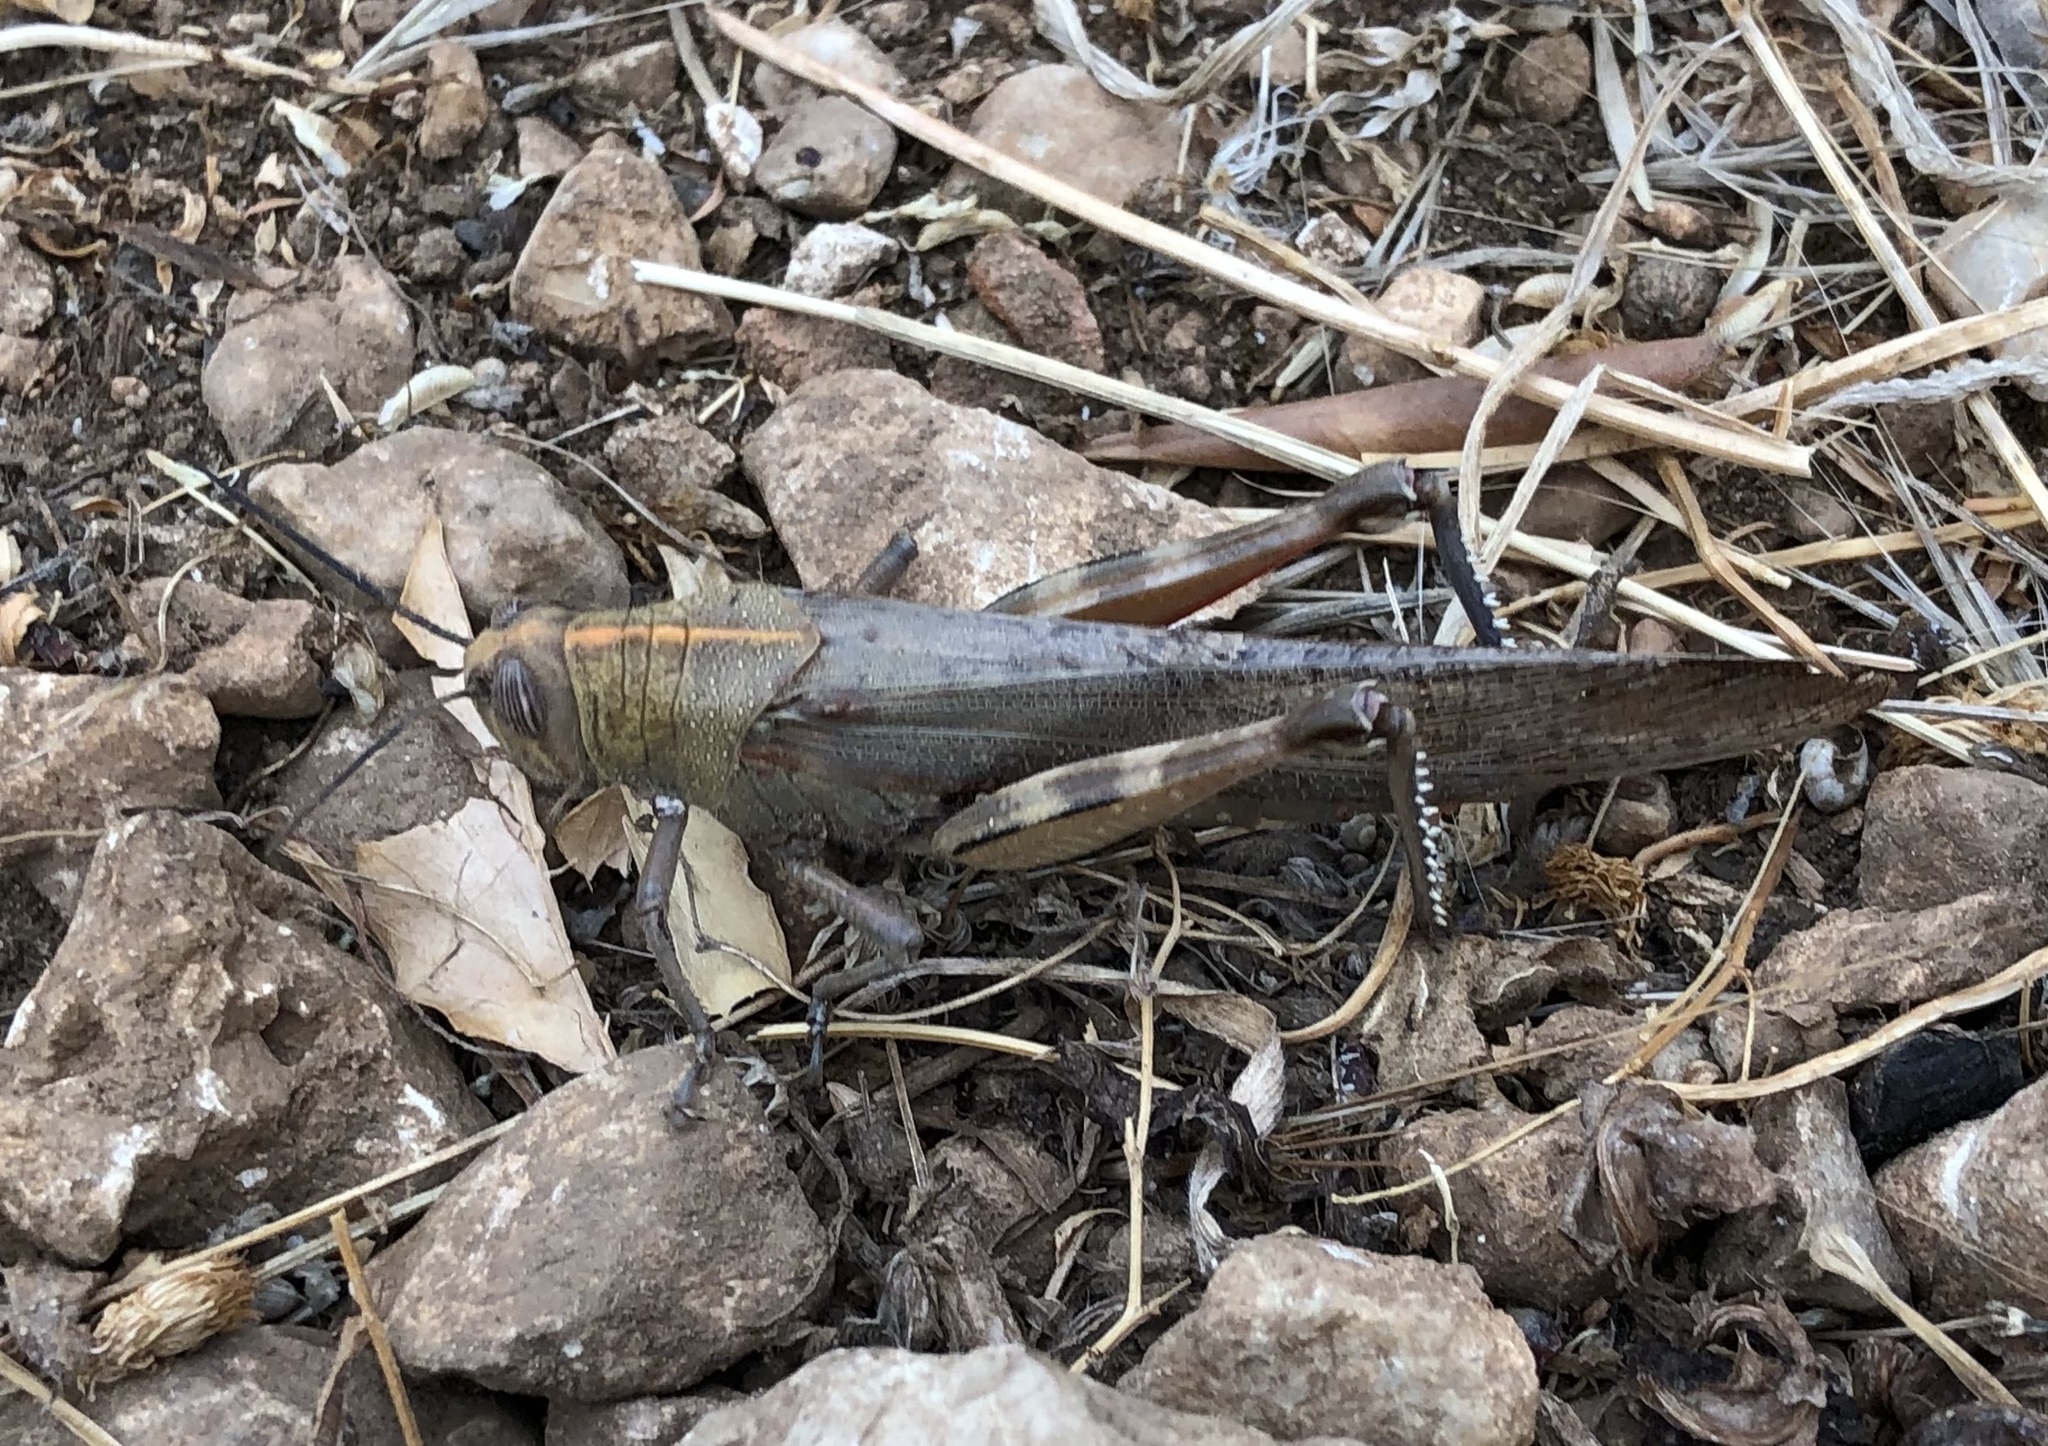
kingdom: Animalia
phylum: Arthropoda
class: Insecta
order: Orthoptera
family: Acrididae
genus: Anacridium
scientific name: Anacridium aegyptium
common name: Egyptian grasshopper
